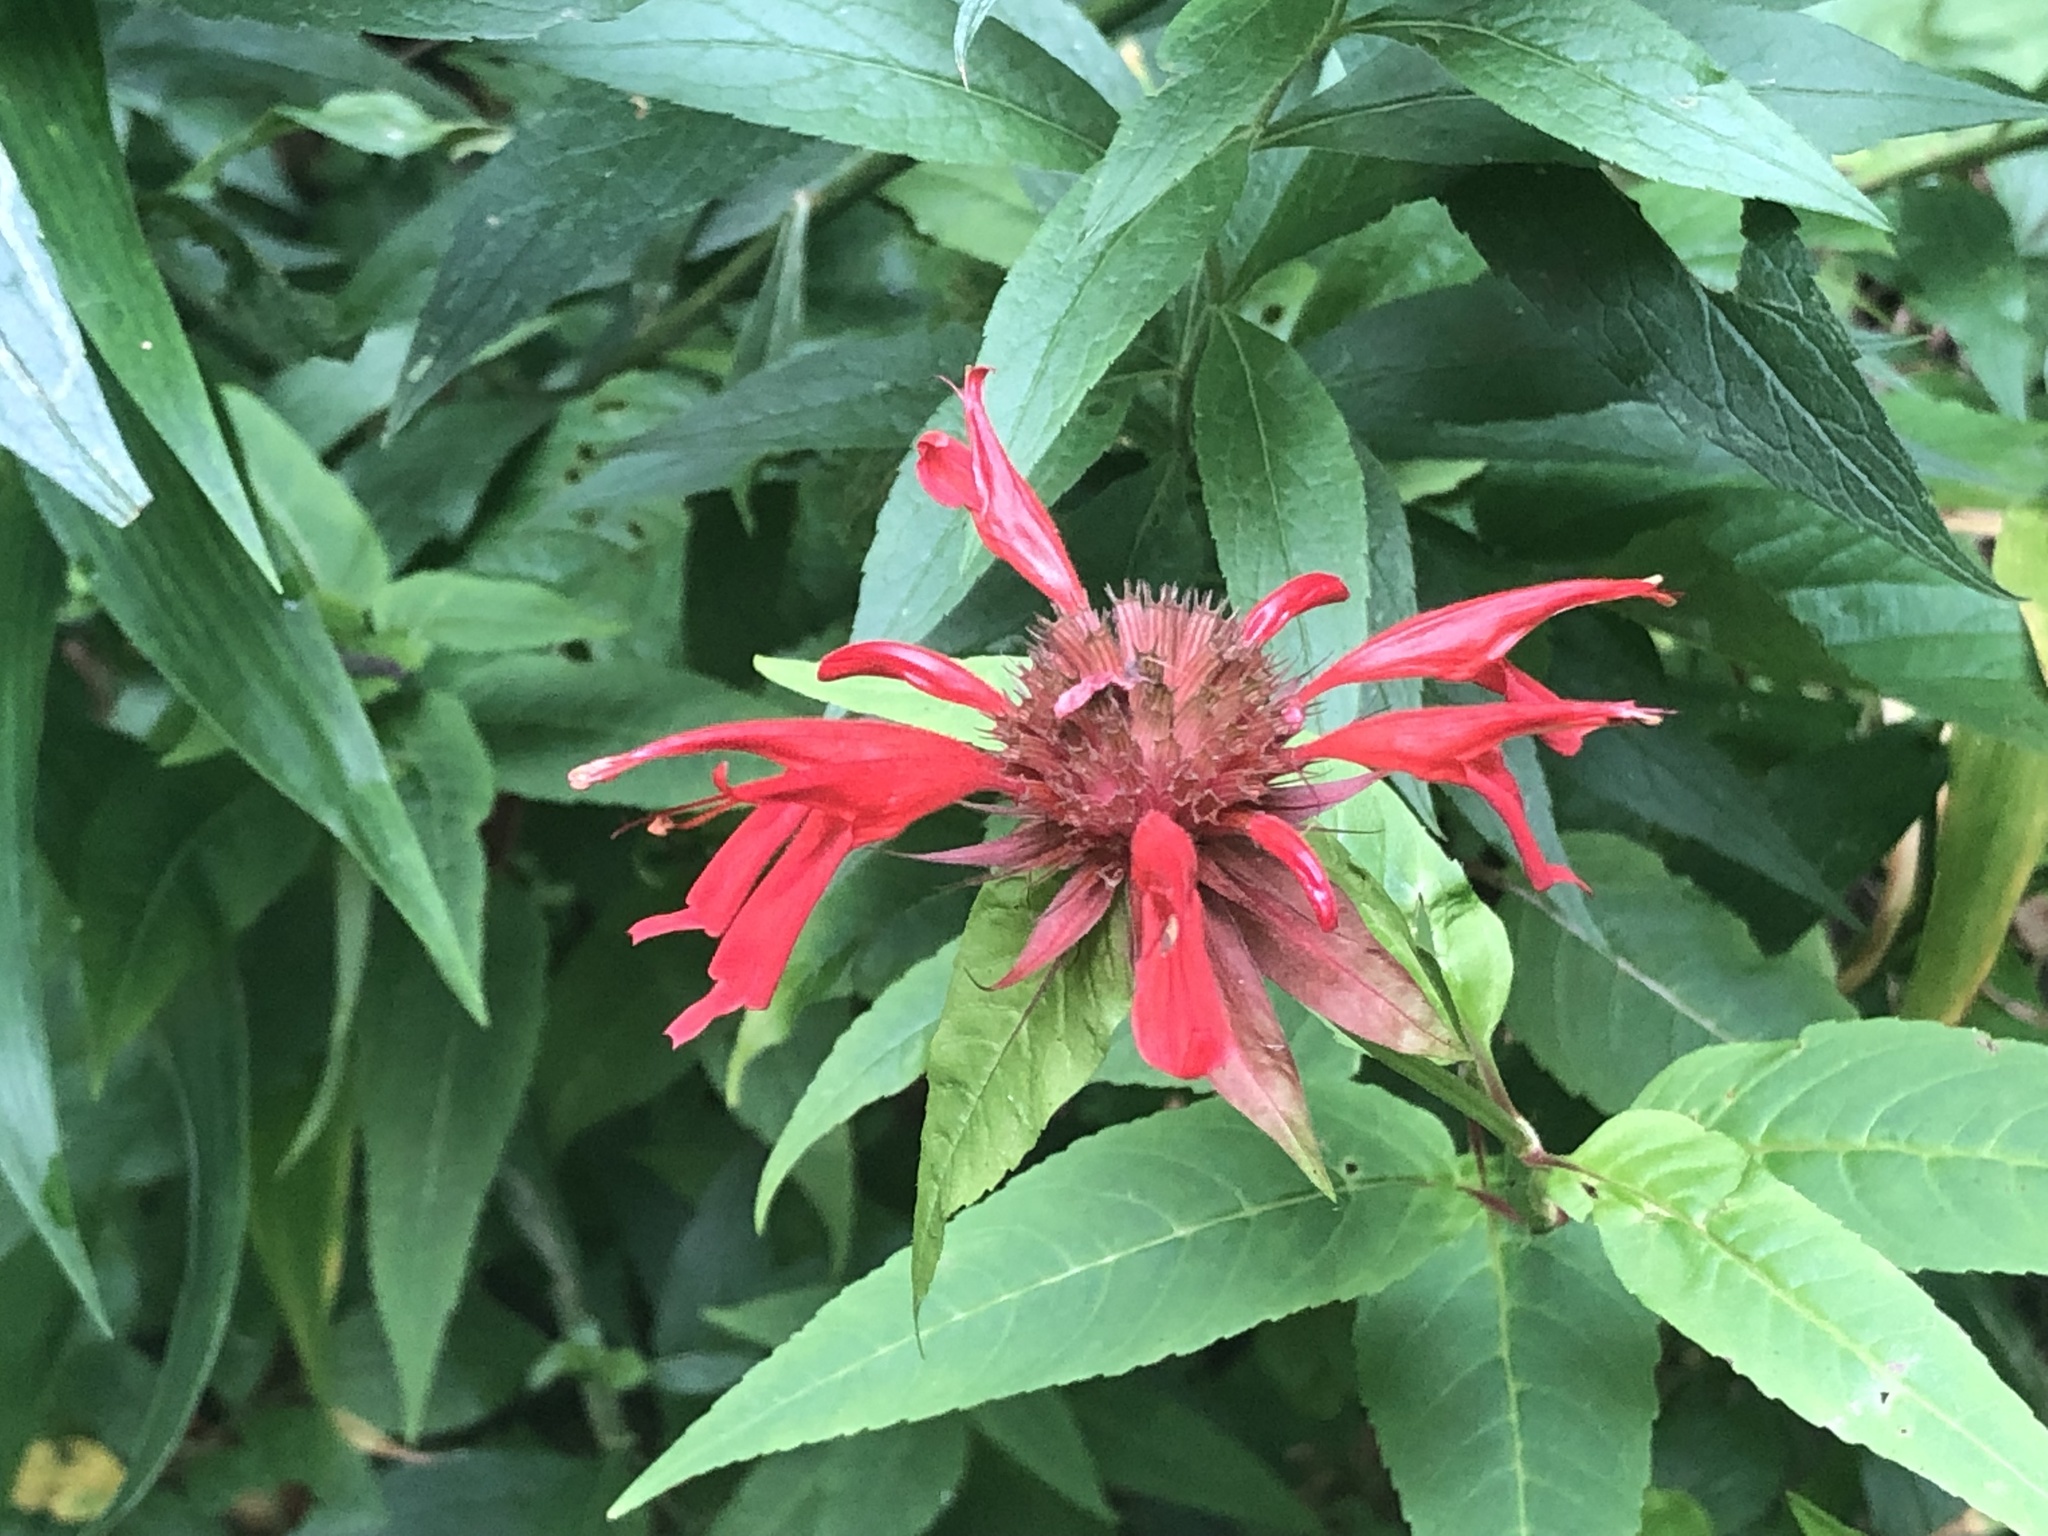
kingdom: Plantae
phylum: Tracheophyta
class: Magnoliopsida
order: Lamiales
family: Lamiaceae
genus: Monarda
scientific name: Monarda didyma
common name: Beebalm
